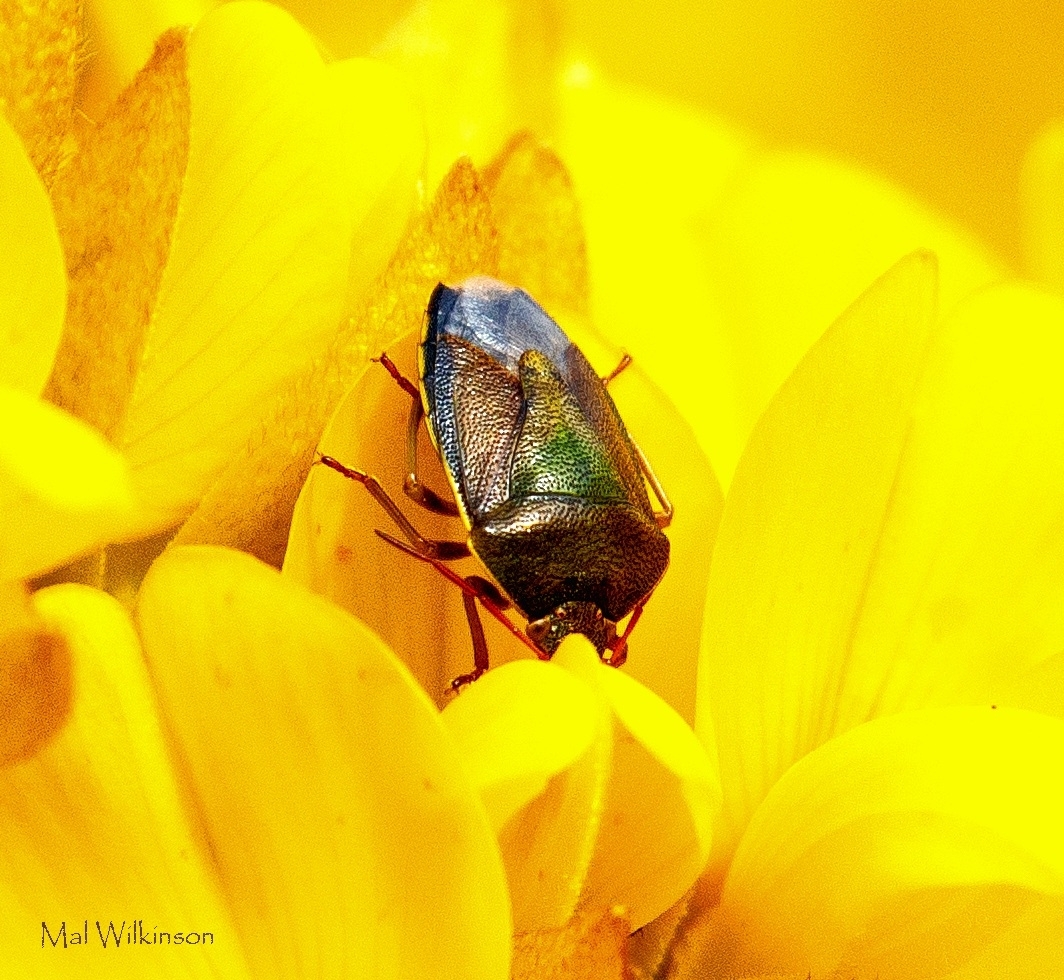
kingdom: Animalia
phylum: Arthropoda
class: Insecta
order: Hemiptera
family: Pentatomidae
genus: Piezodorus
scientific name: Piezodorus lituratus
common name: Stink bug
